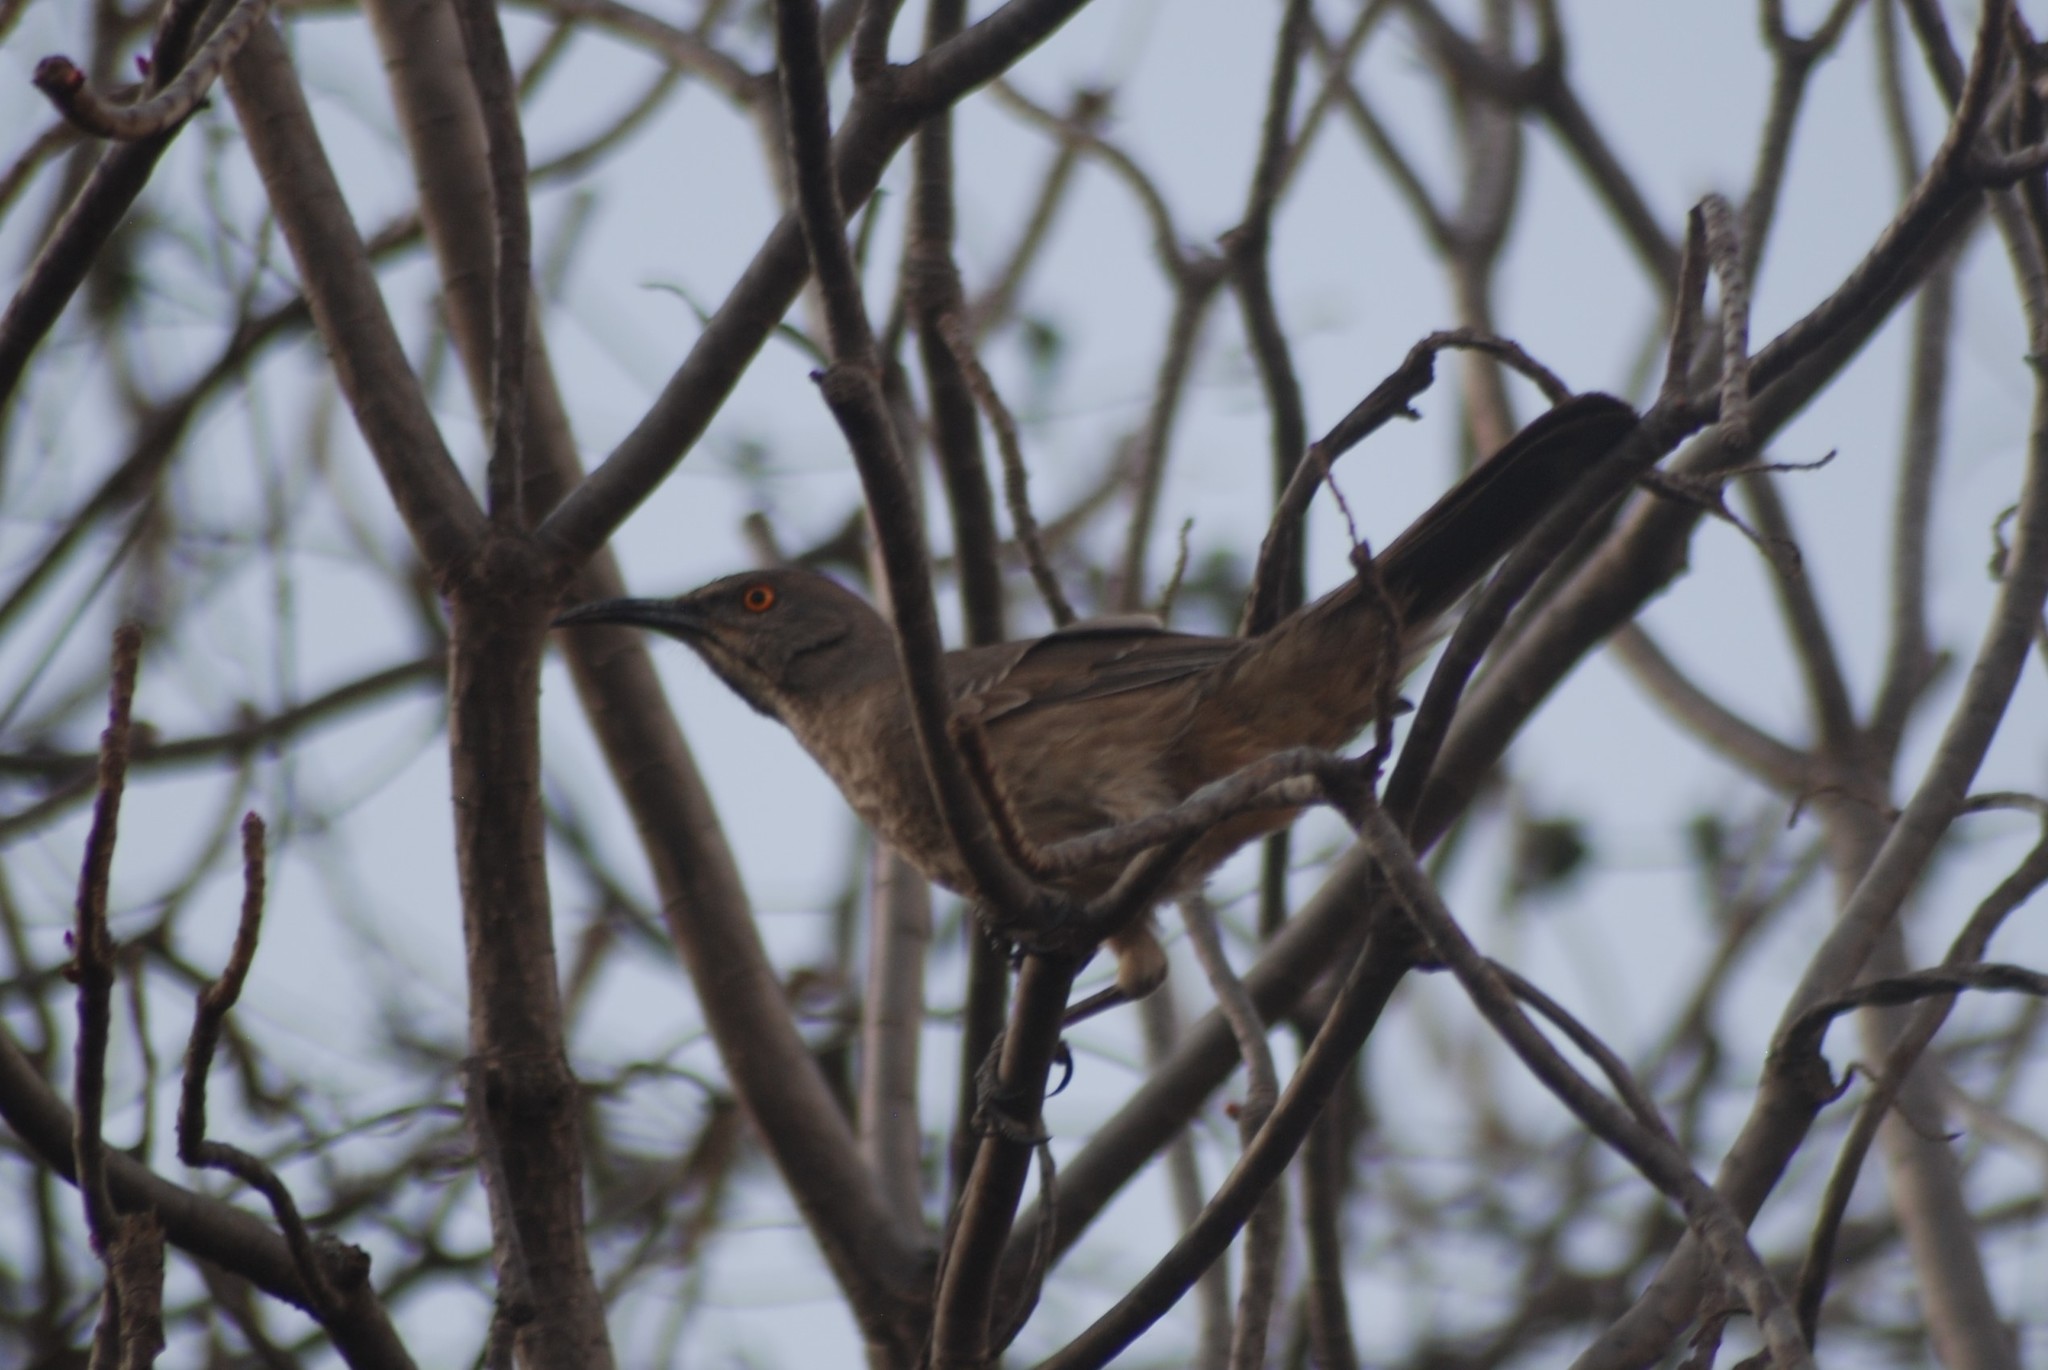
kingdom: Animalia
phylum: Chordata
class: Aves
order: Passeriformes
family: Mimidae
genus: Toxostoma
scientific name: Toxostoma curvirostre
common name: Curve-billed thrasher
